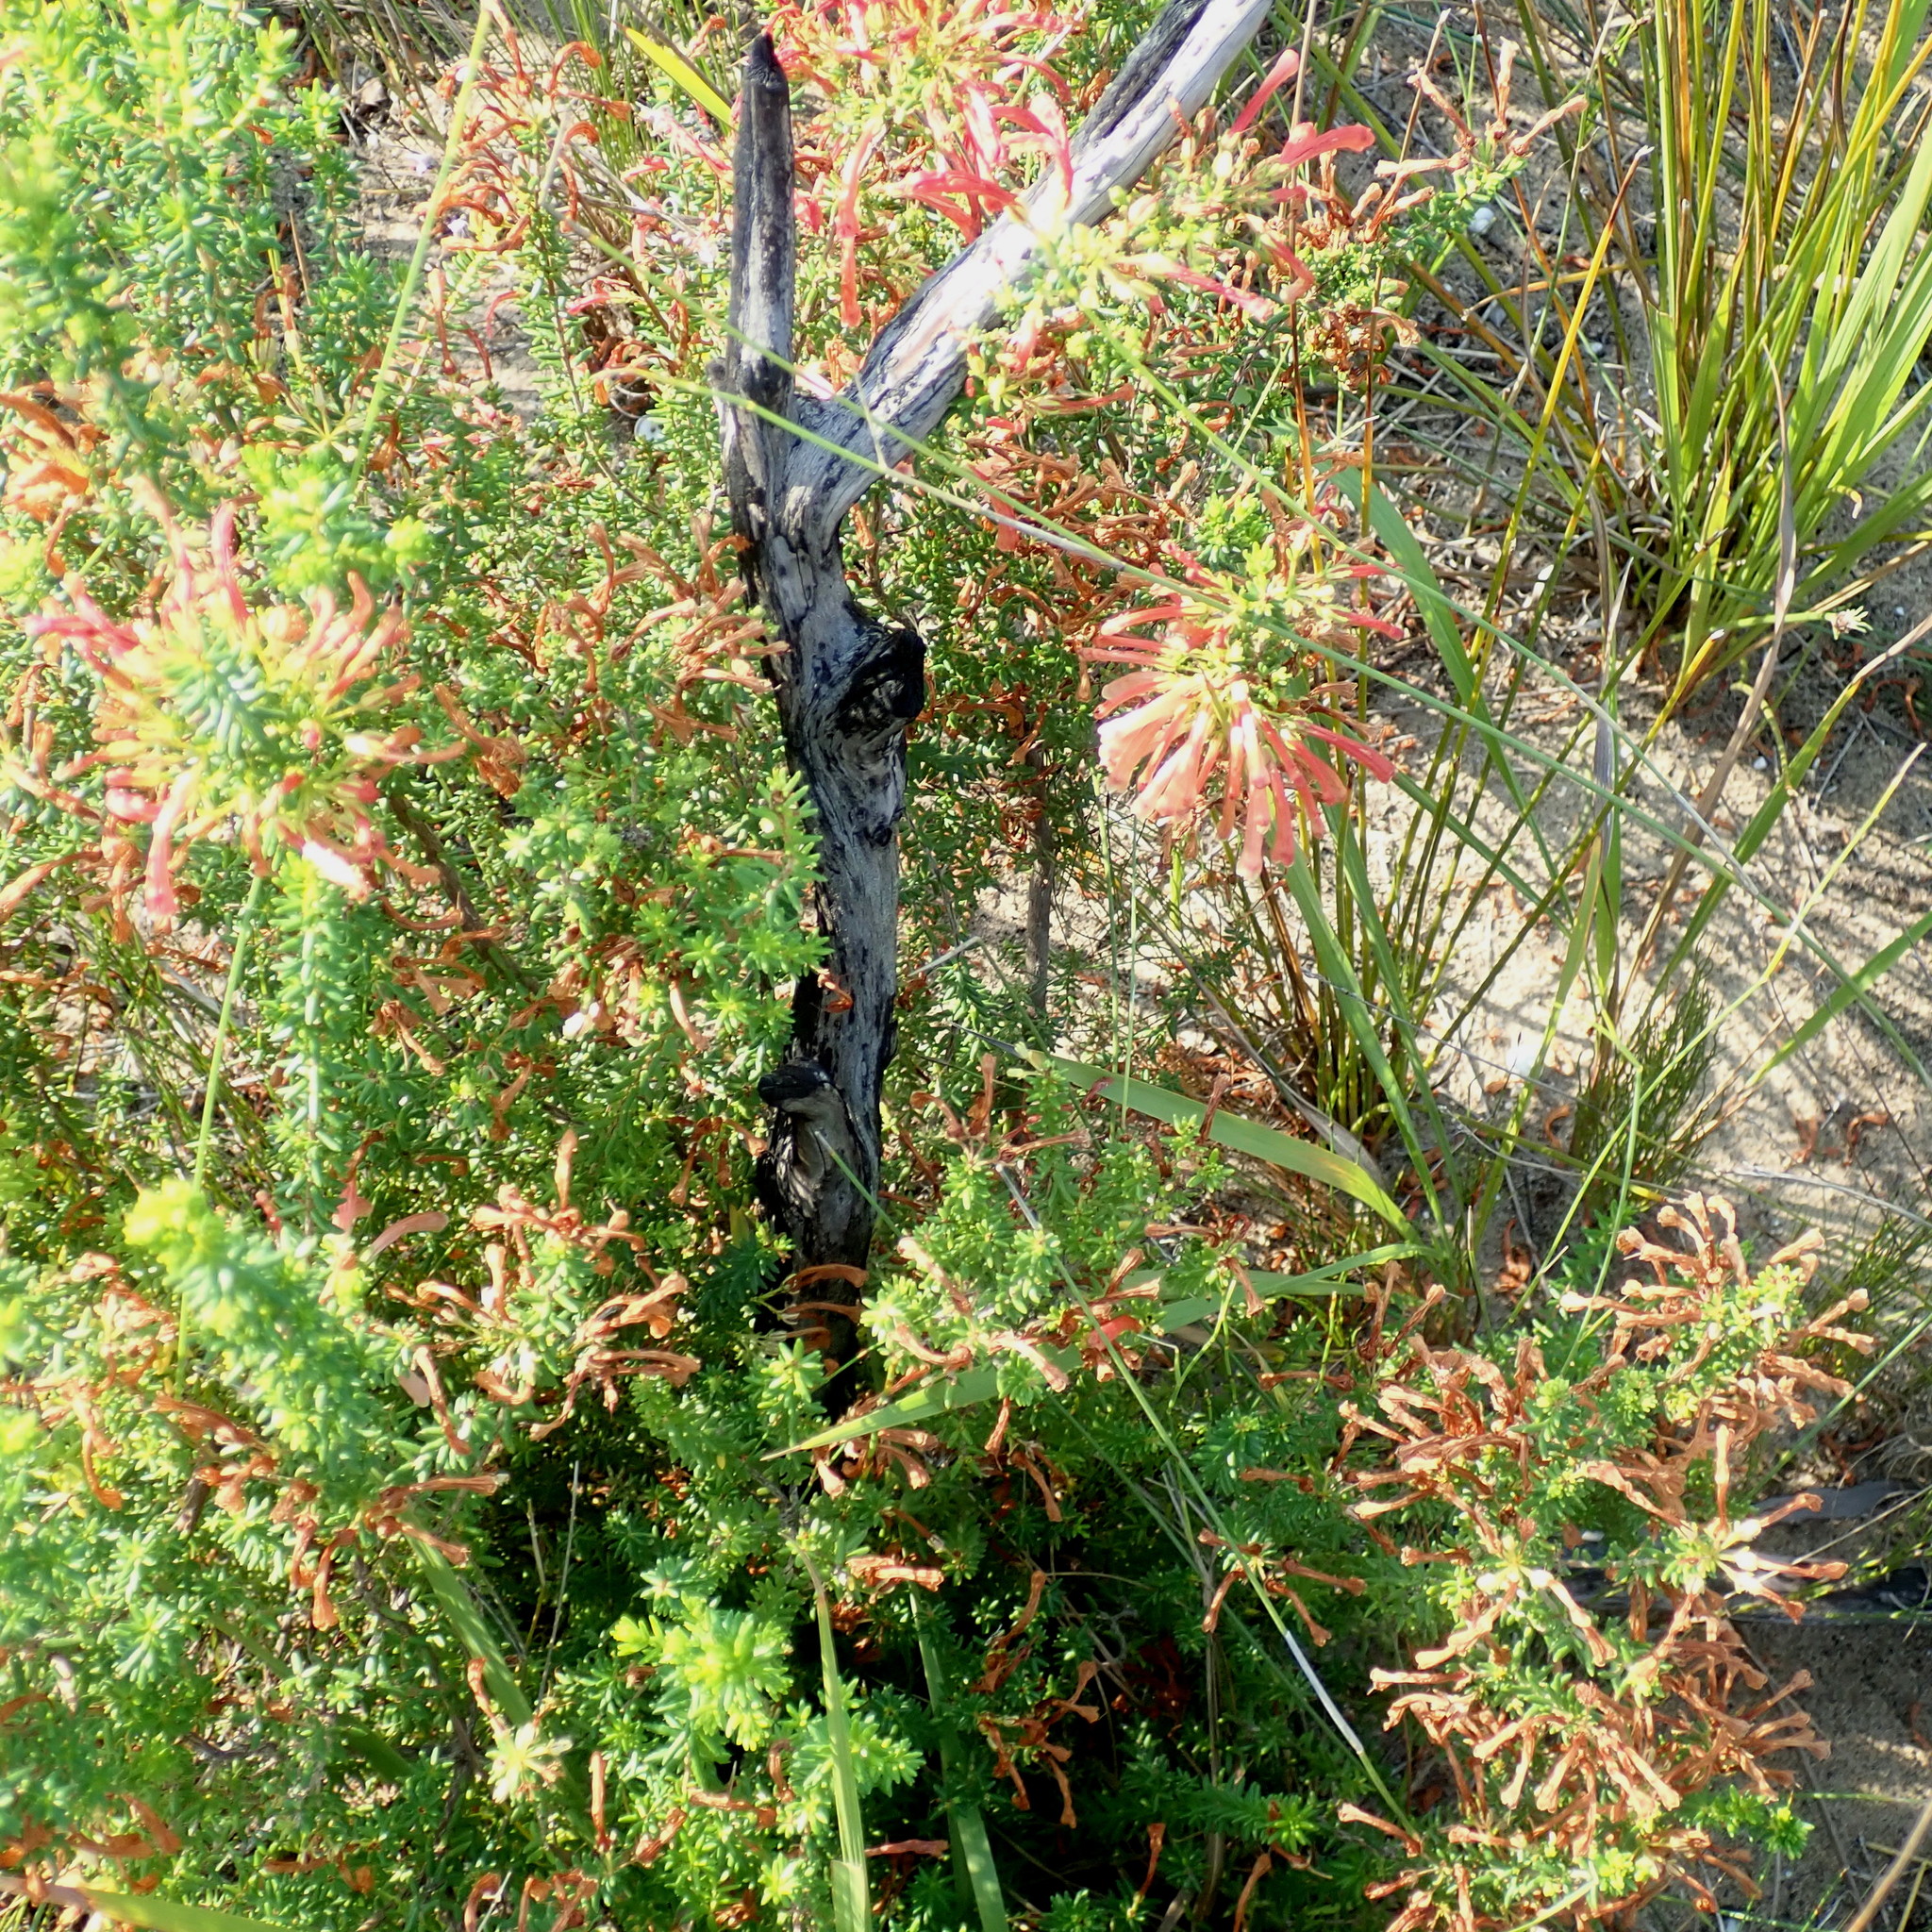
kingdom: Plantae
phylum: Tracheophyta
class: Magnoliopsida
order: Ericales
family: Ericaceae
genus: Erica
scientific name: Erica glandulosa
